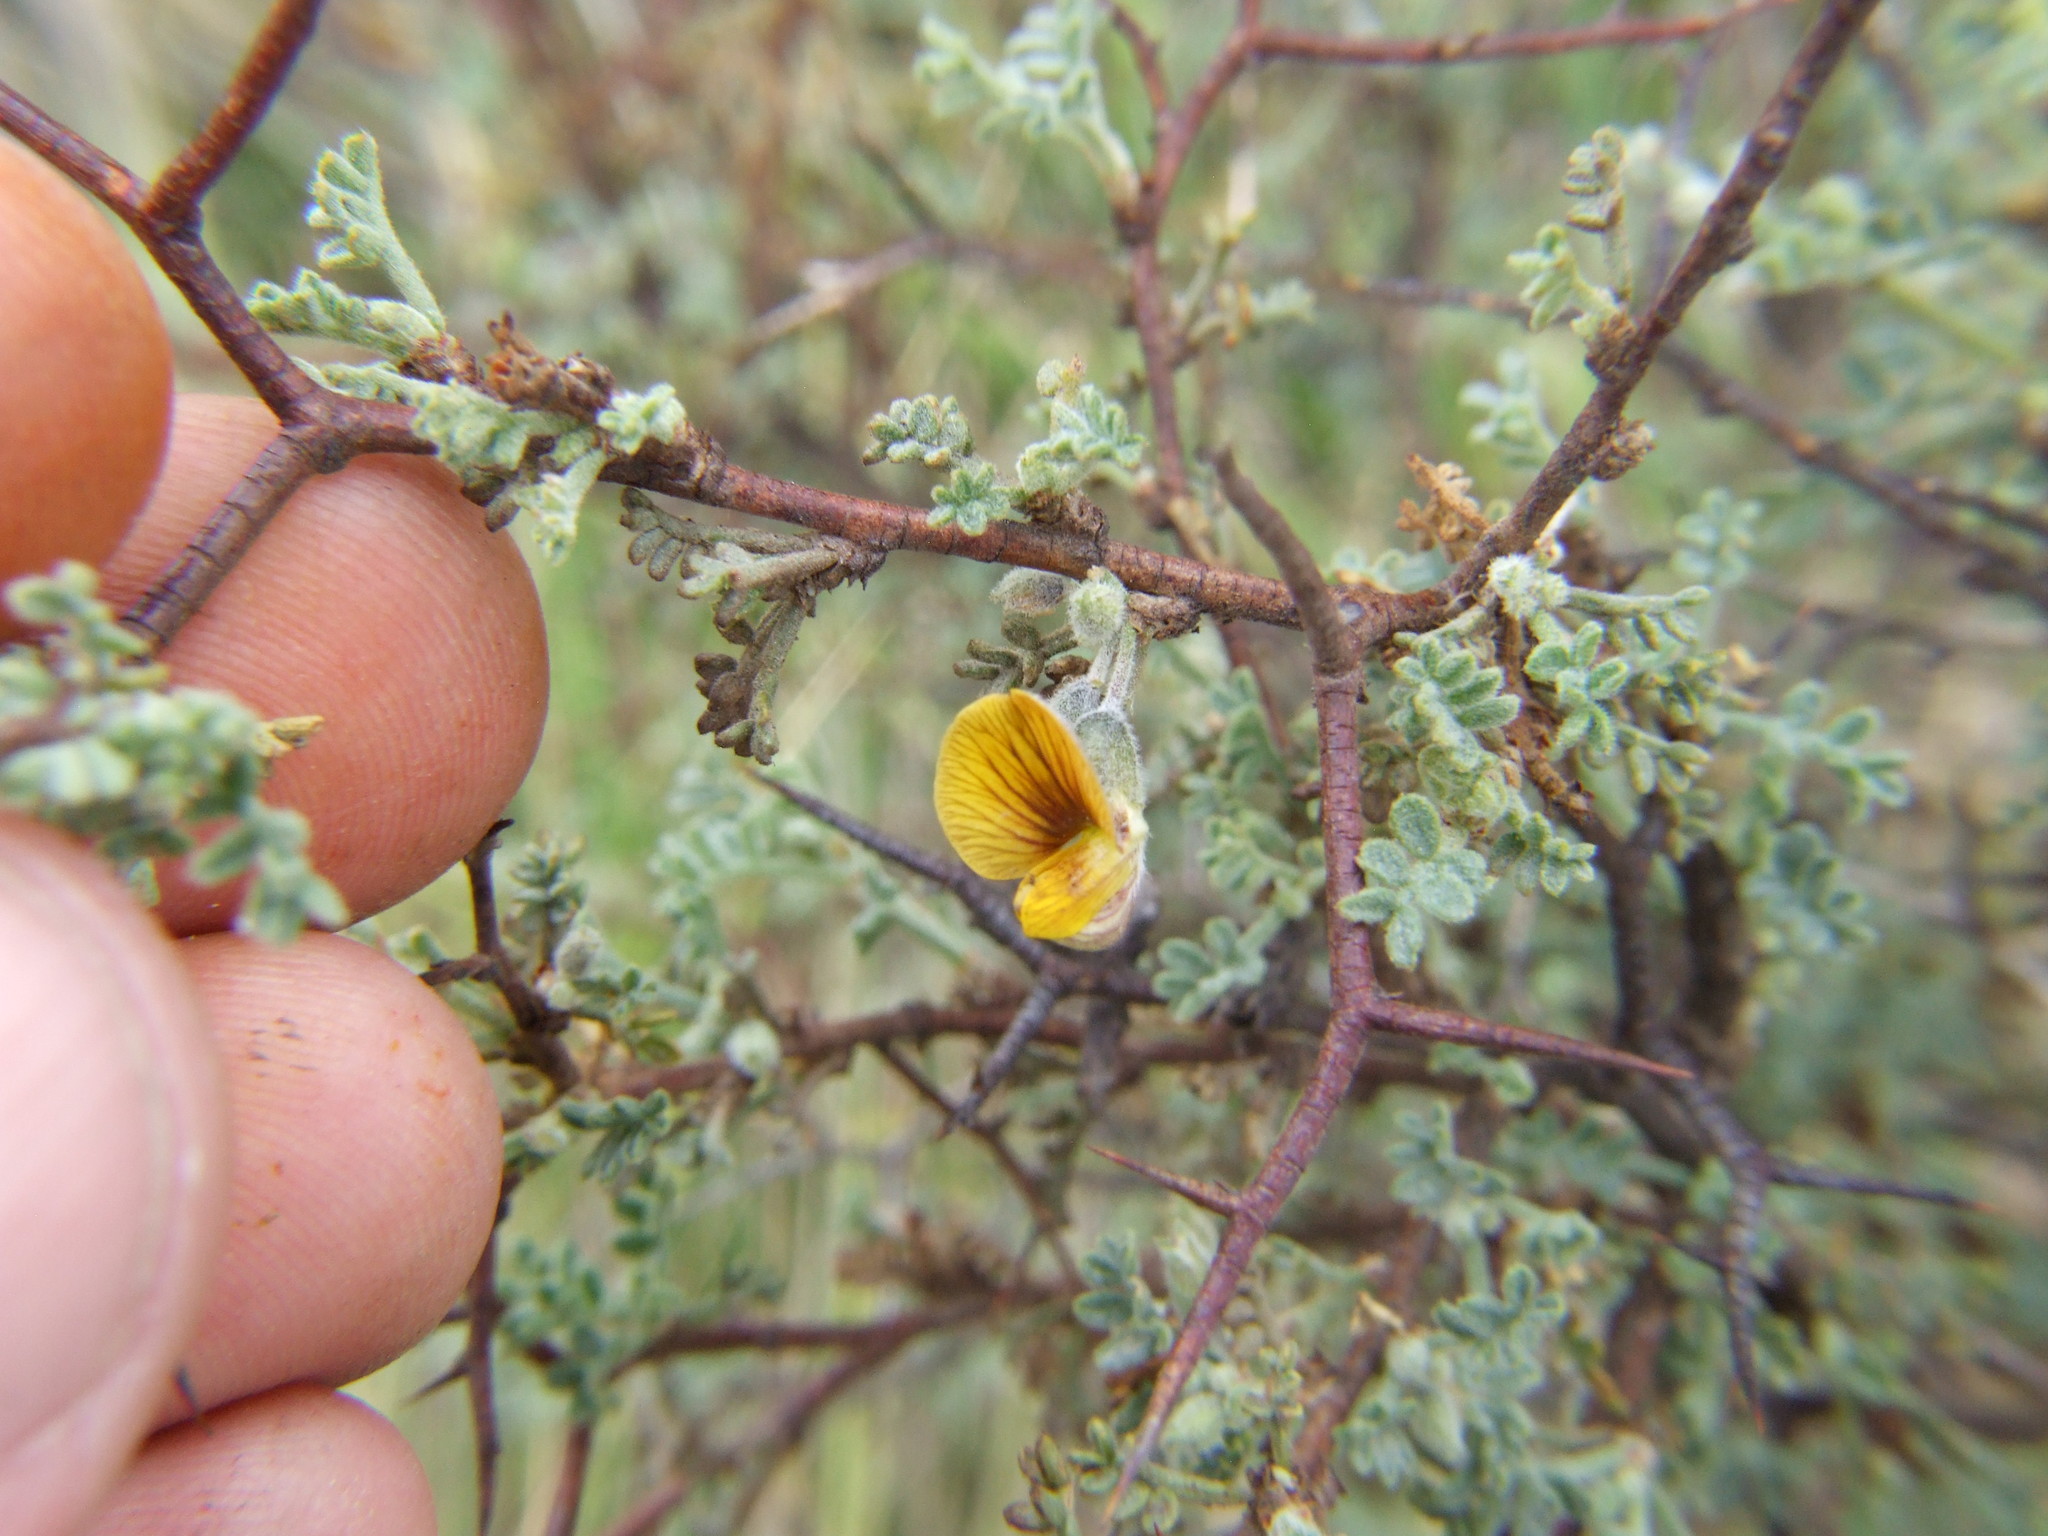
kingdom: Plantae
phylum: Tracheophyta
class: Magnoliopsida
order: Fabales
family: Fabaceae
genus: Adesmia
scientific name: Adesmia spinosissima
